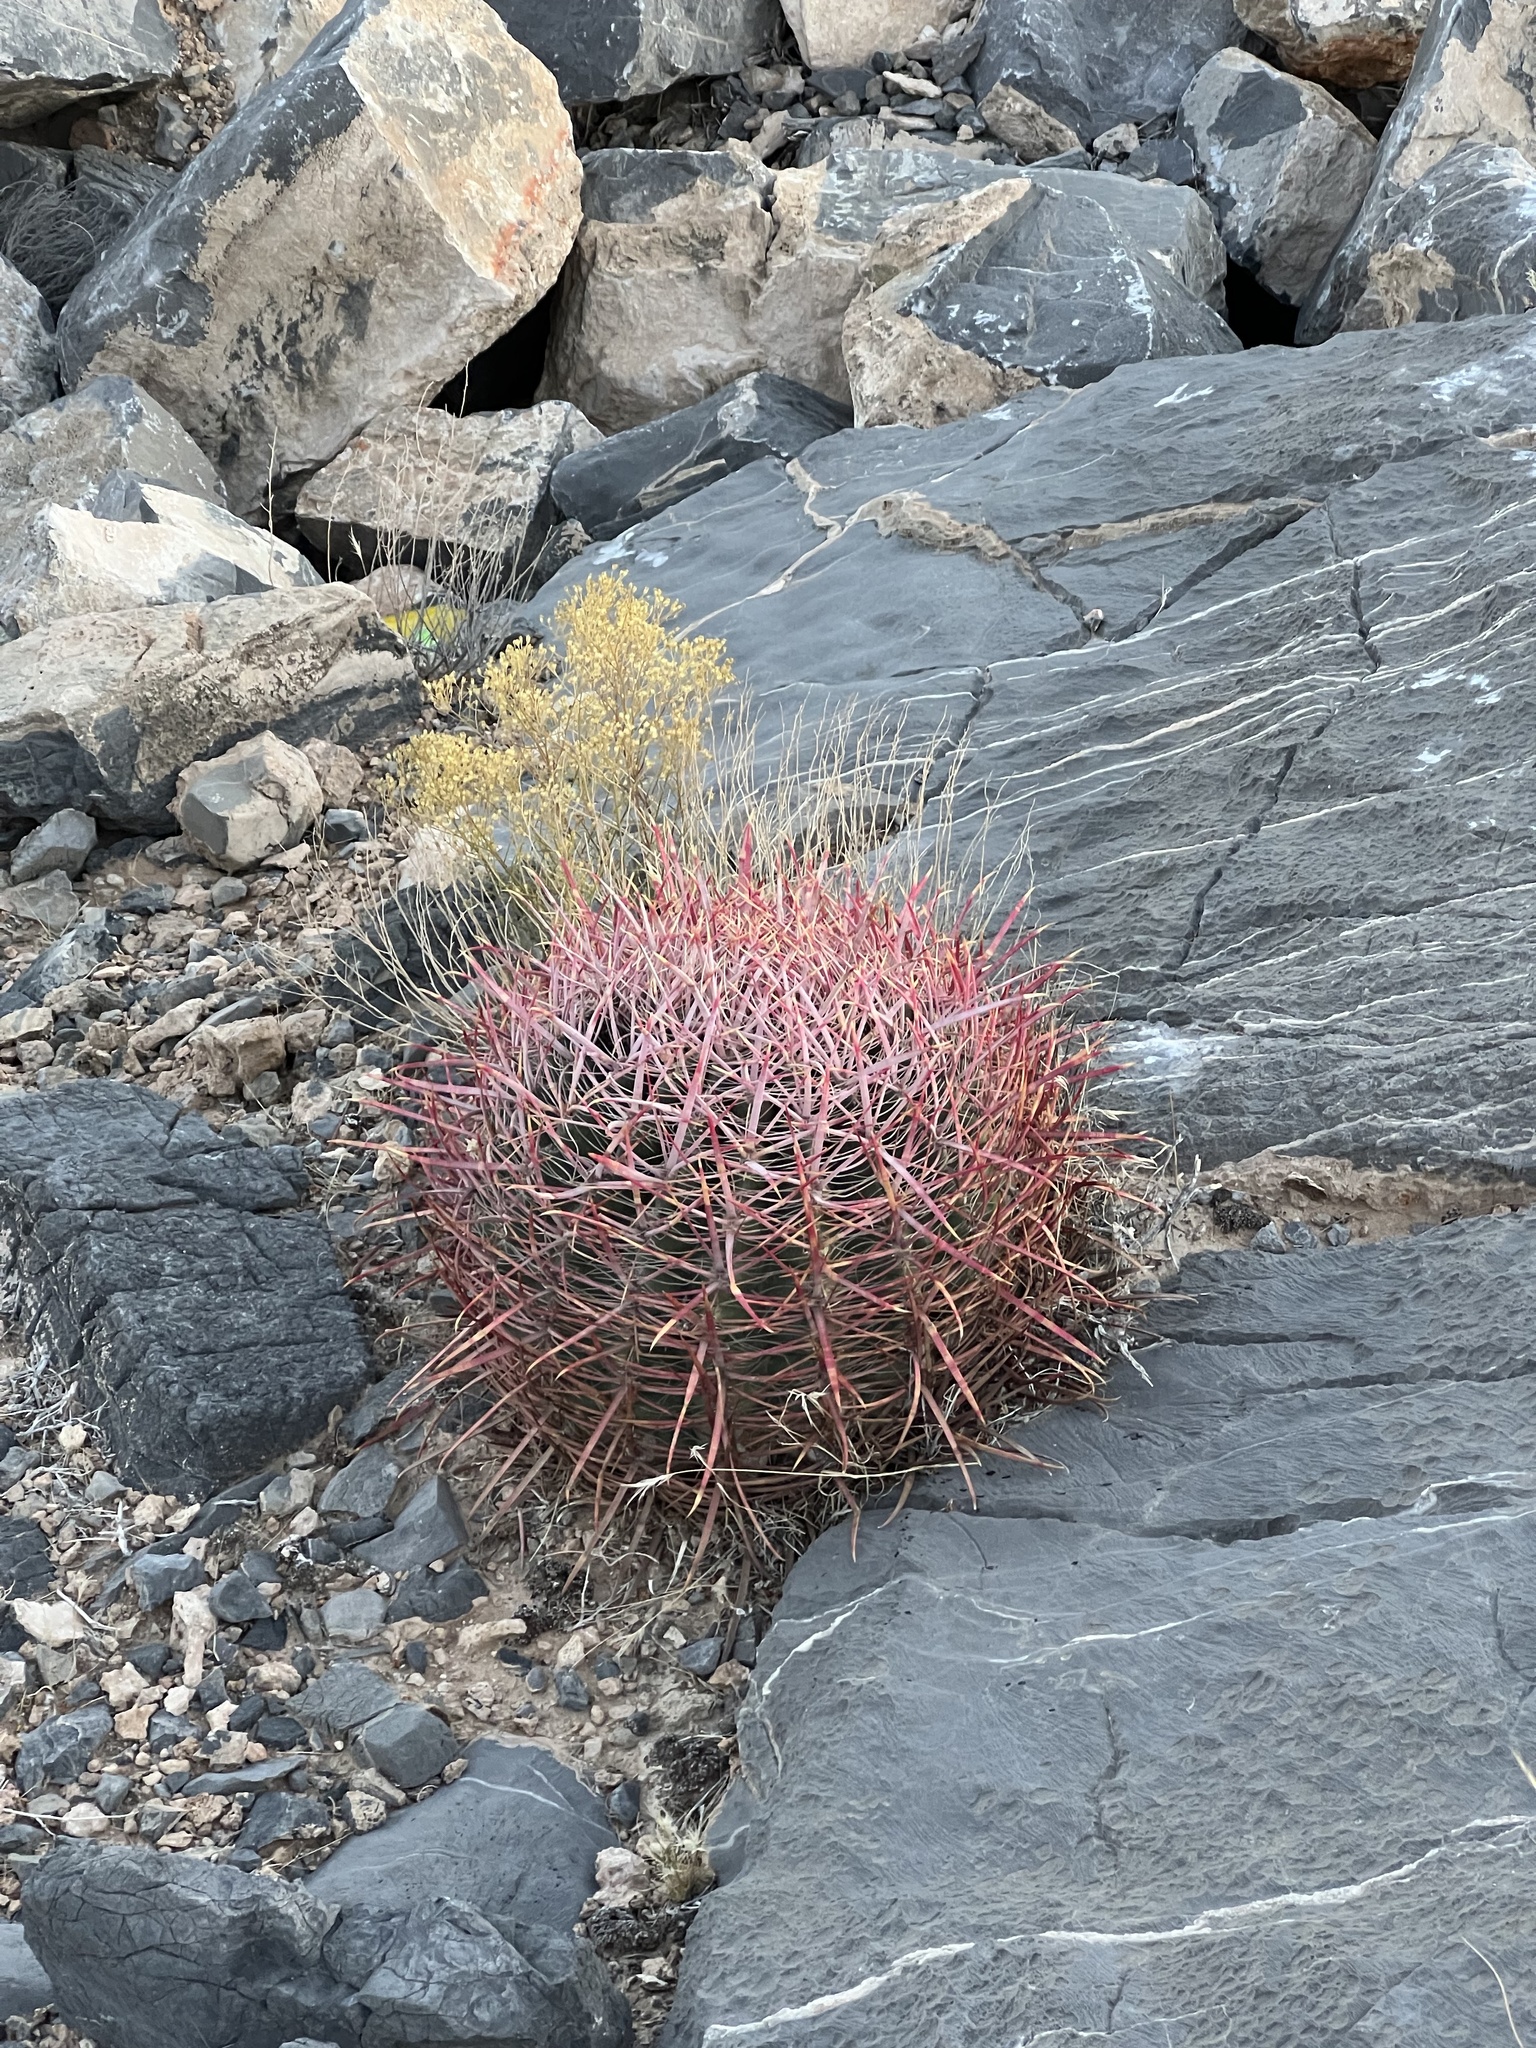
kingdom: Plantae
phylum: Tracheophyta
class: Magnoliopsida
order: Caryophyllales
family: Cactaceae
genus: Ferocactus
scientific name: Ferocactus cylindraceus
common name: California barrel cactus
